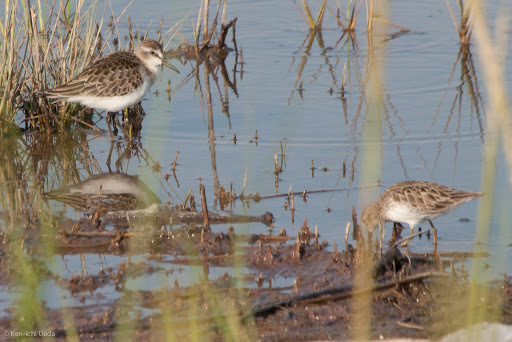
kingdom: Animalia
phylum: Chordata
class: Aves
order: Charadriiformes
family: Scolopacidae
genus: Calidris
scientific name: Calidris mauri
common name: Western sandpiper
